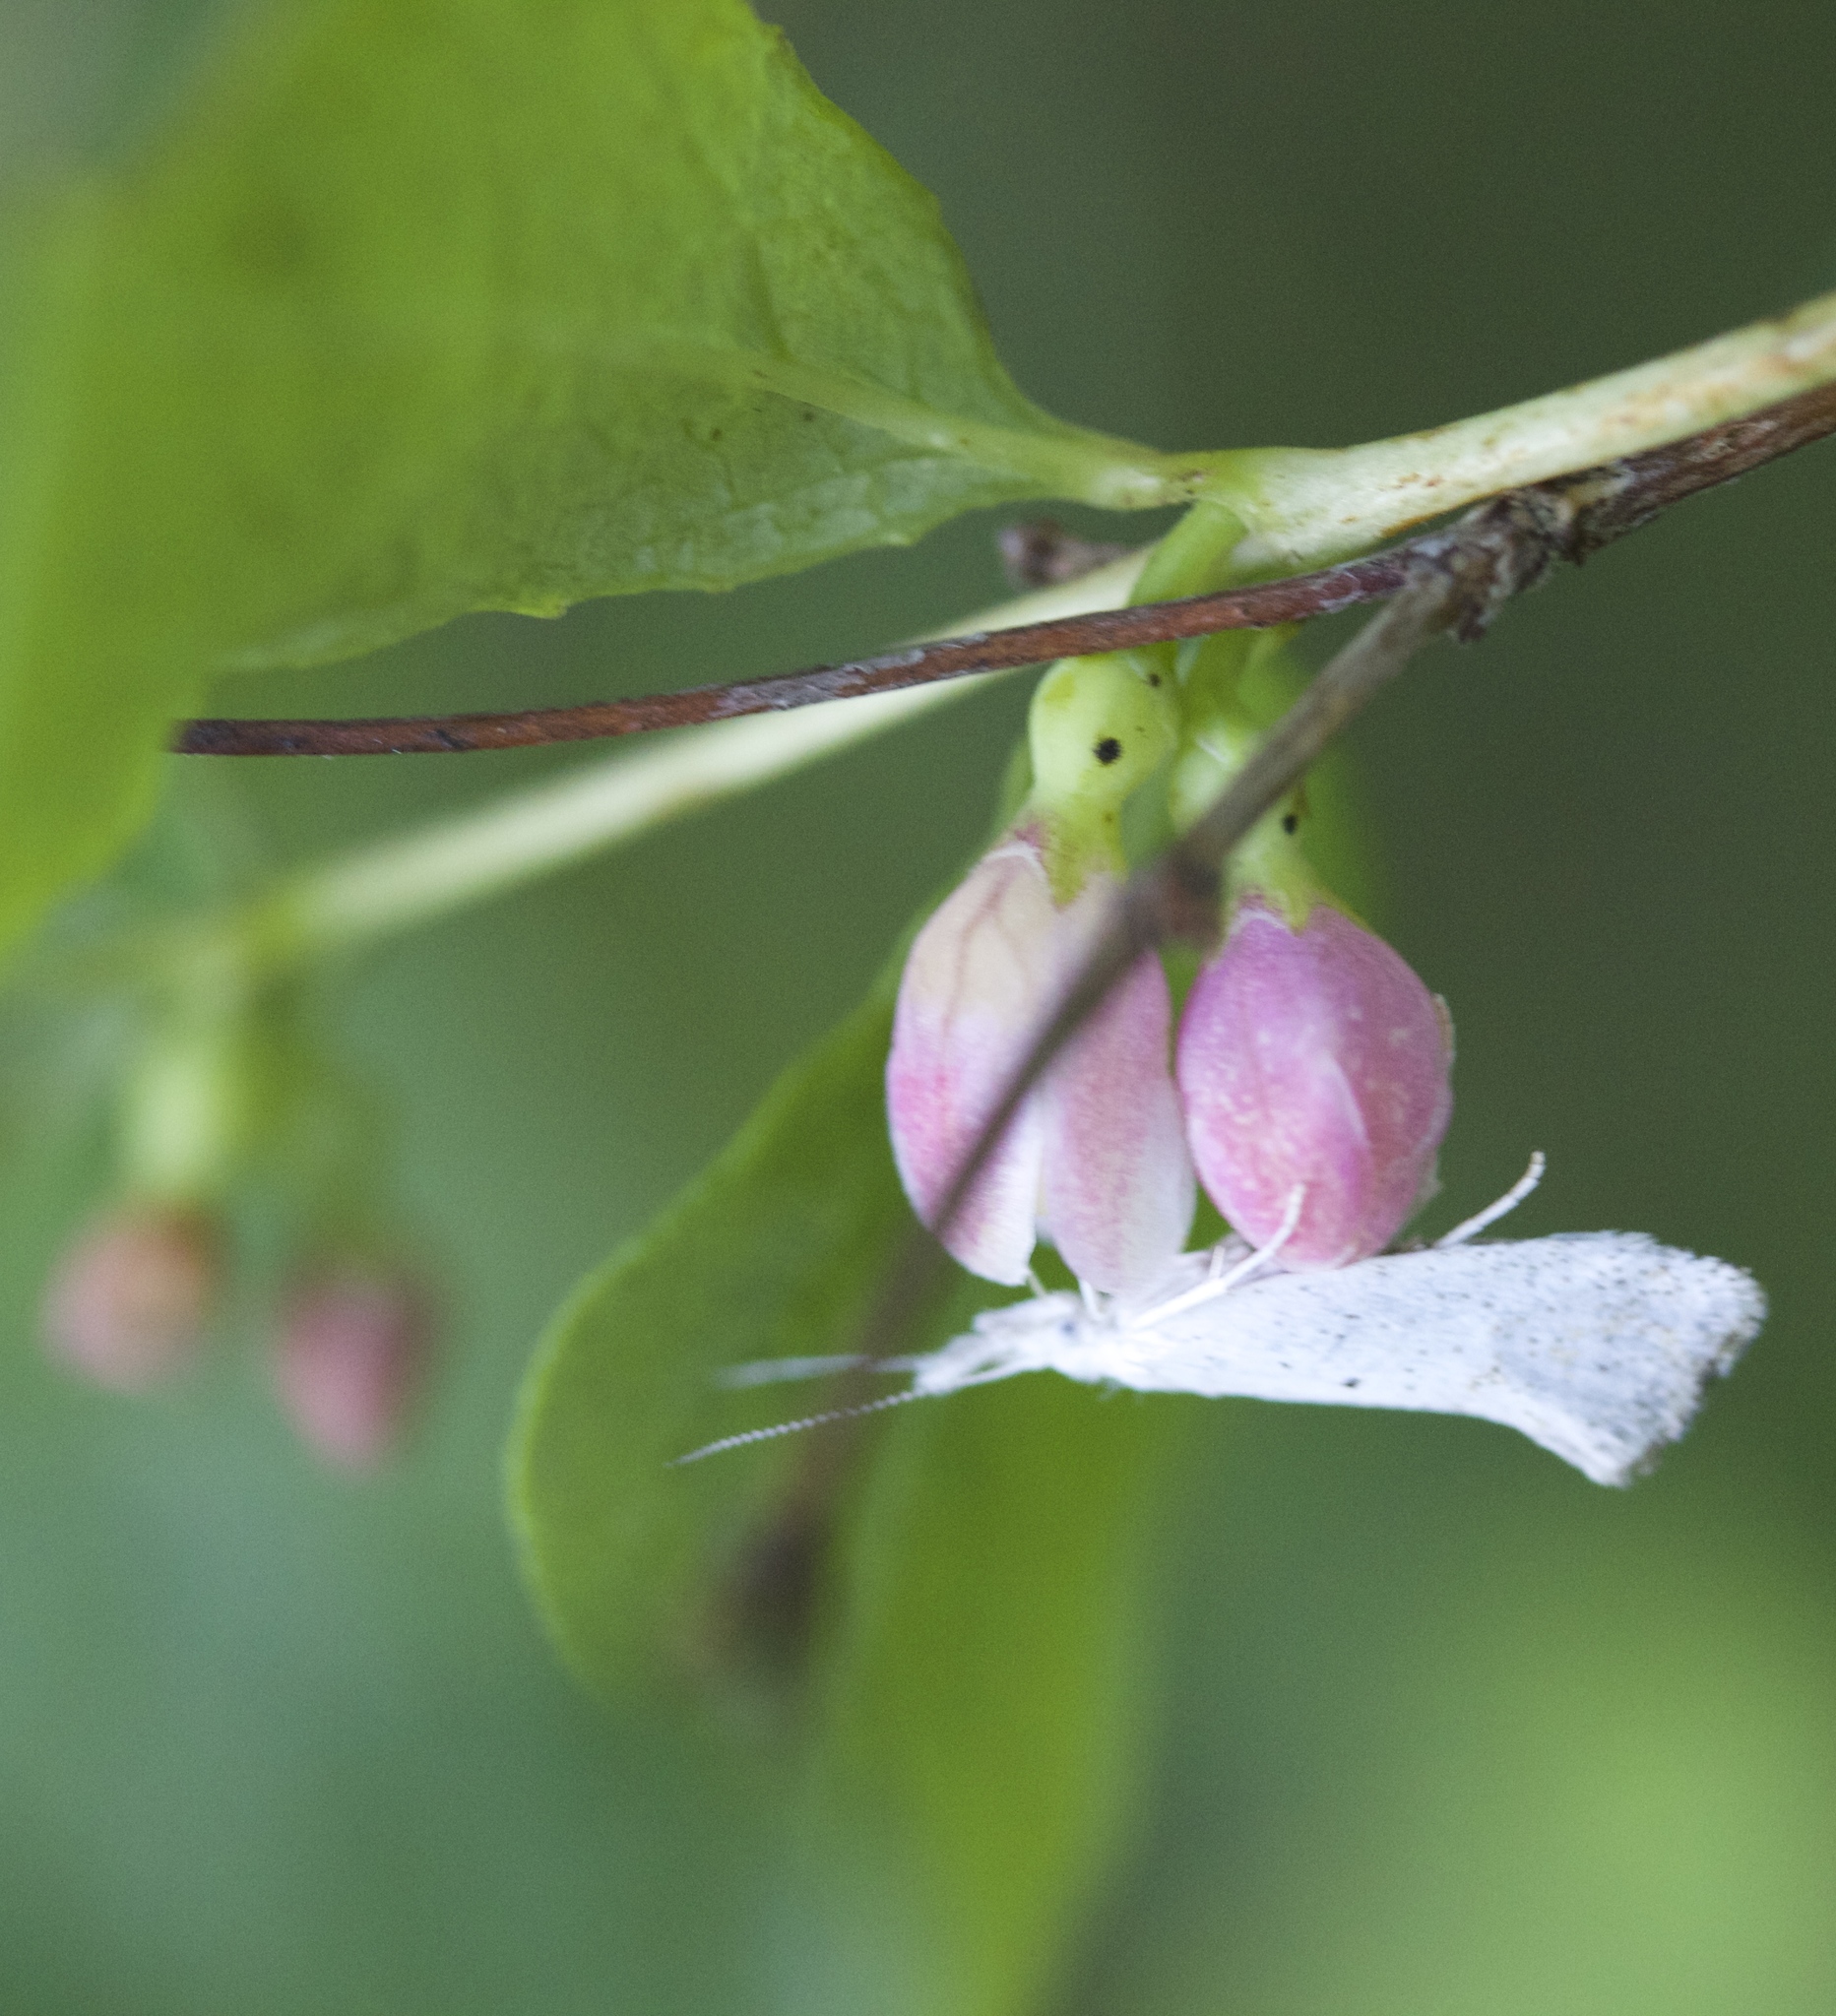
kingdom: Animalia
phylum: Arthropoda
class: Insecta
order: Lepidoptera
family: Ypsolophidae
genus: Euceratia
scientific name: Euceratia castella
